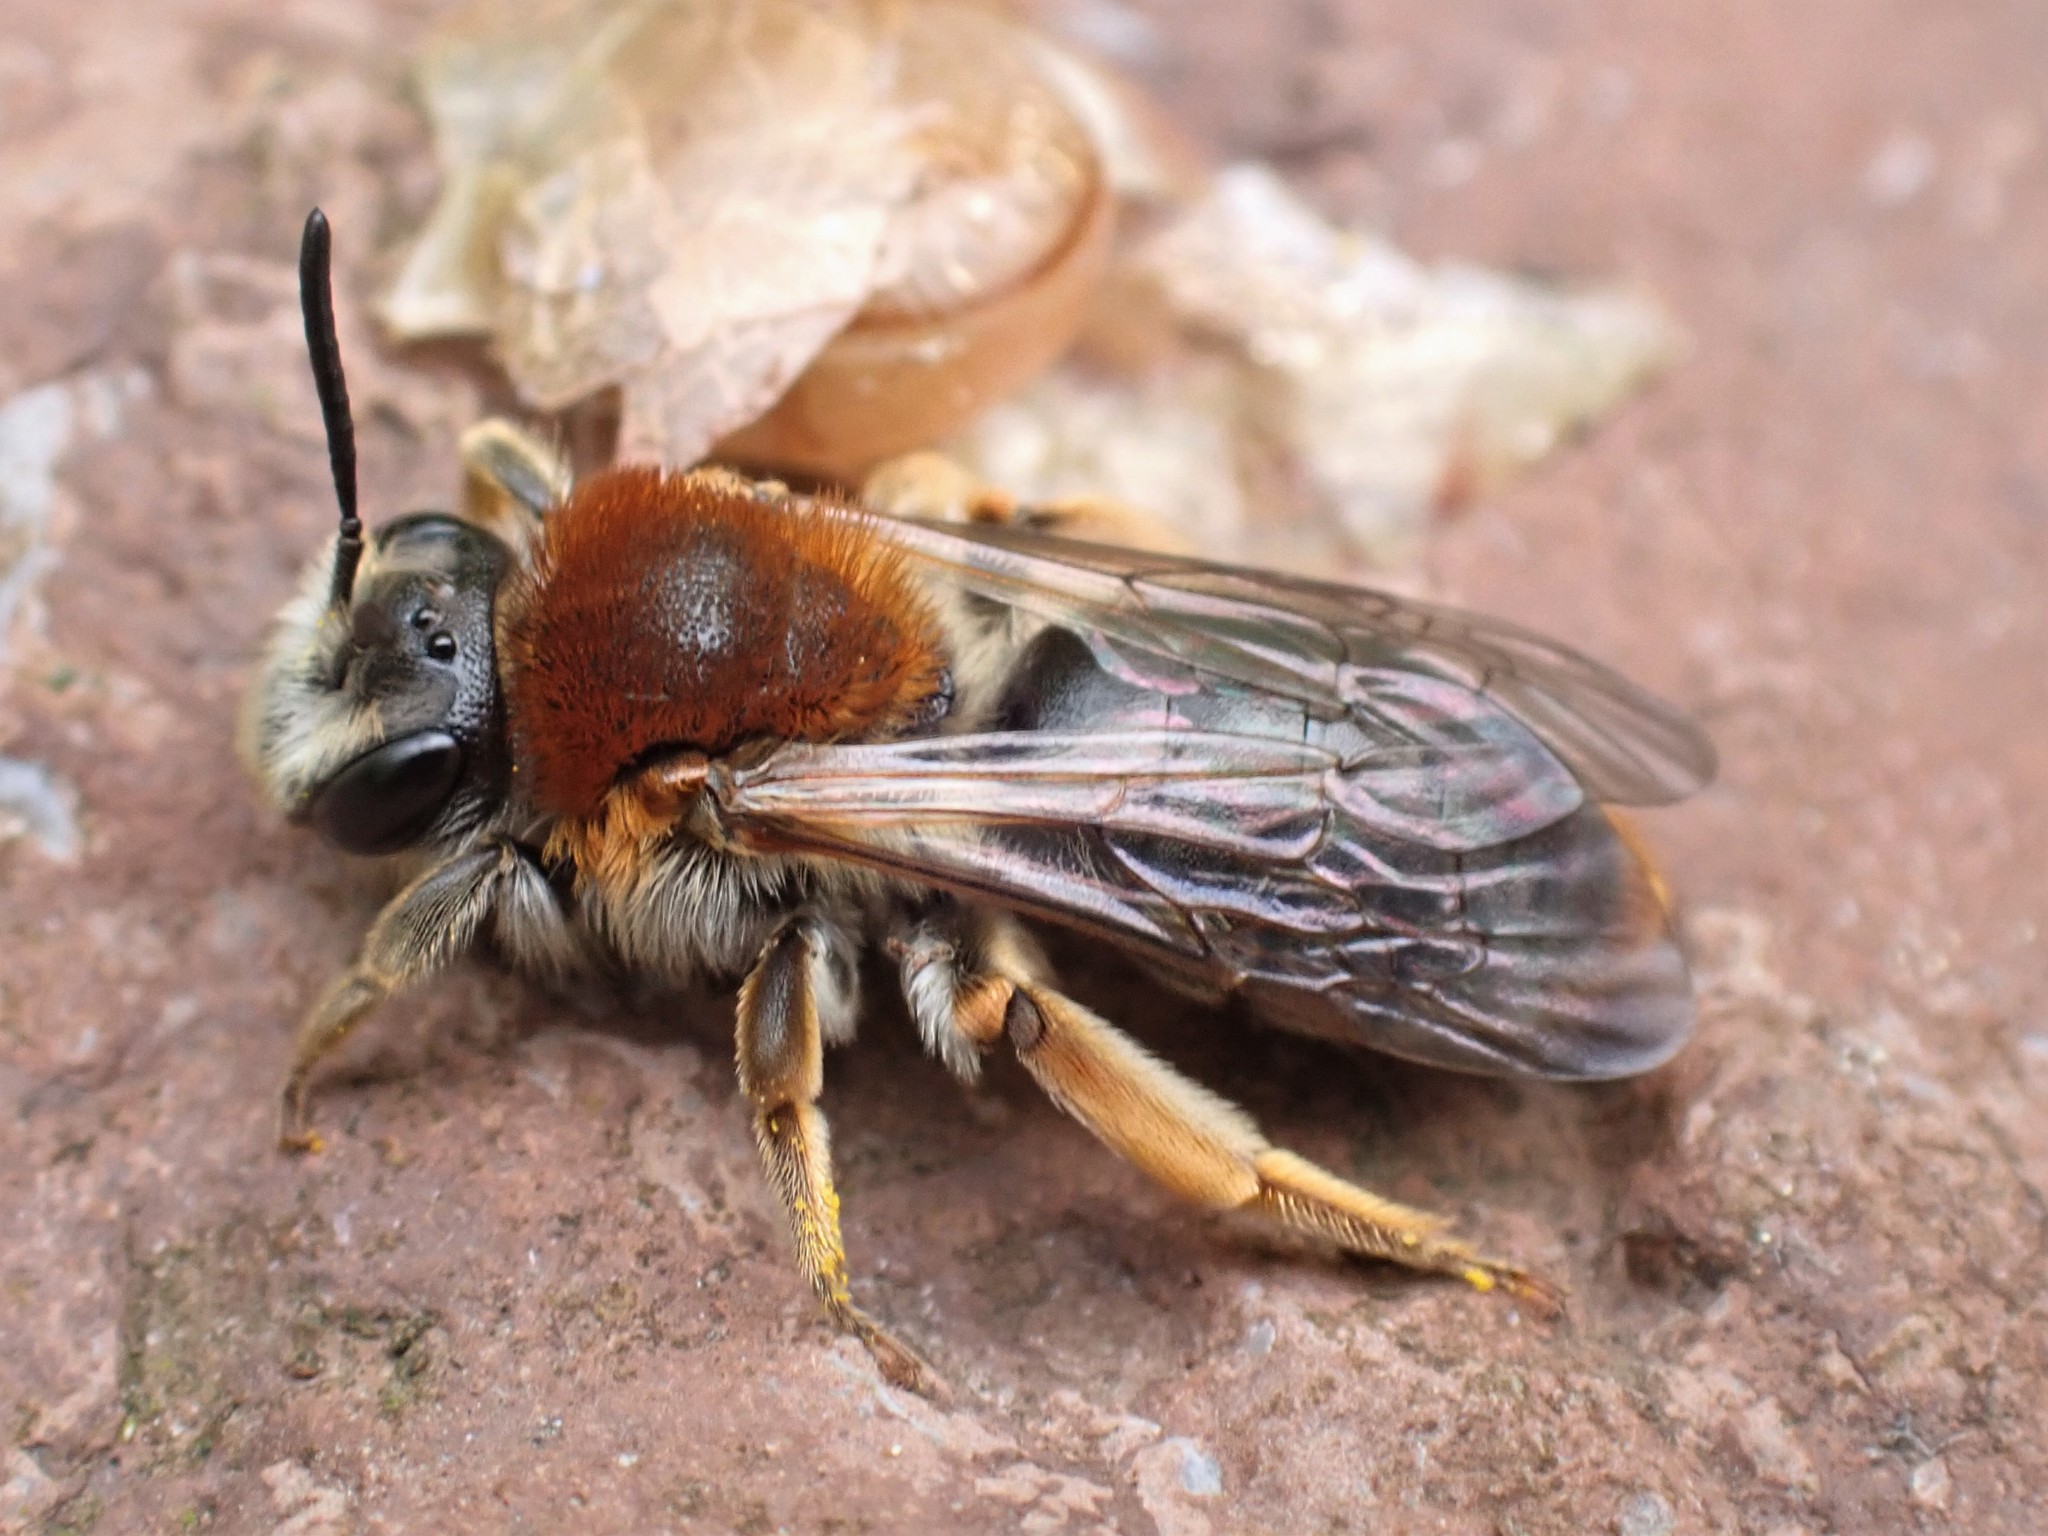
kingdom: Animalia
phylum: Arthropoda
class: Insecta
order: Hymenoptera
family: Andrenidae
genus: Andrena
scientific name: Andrena haemorrhoa
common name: Early mining bee
